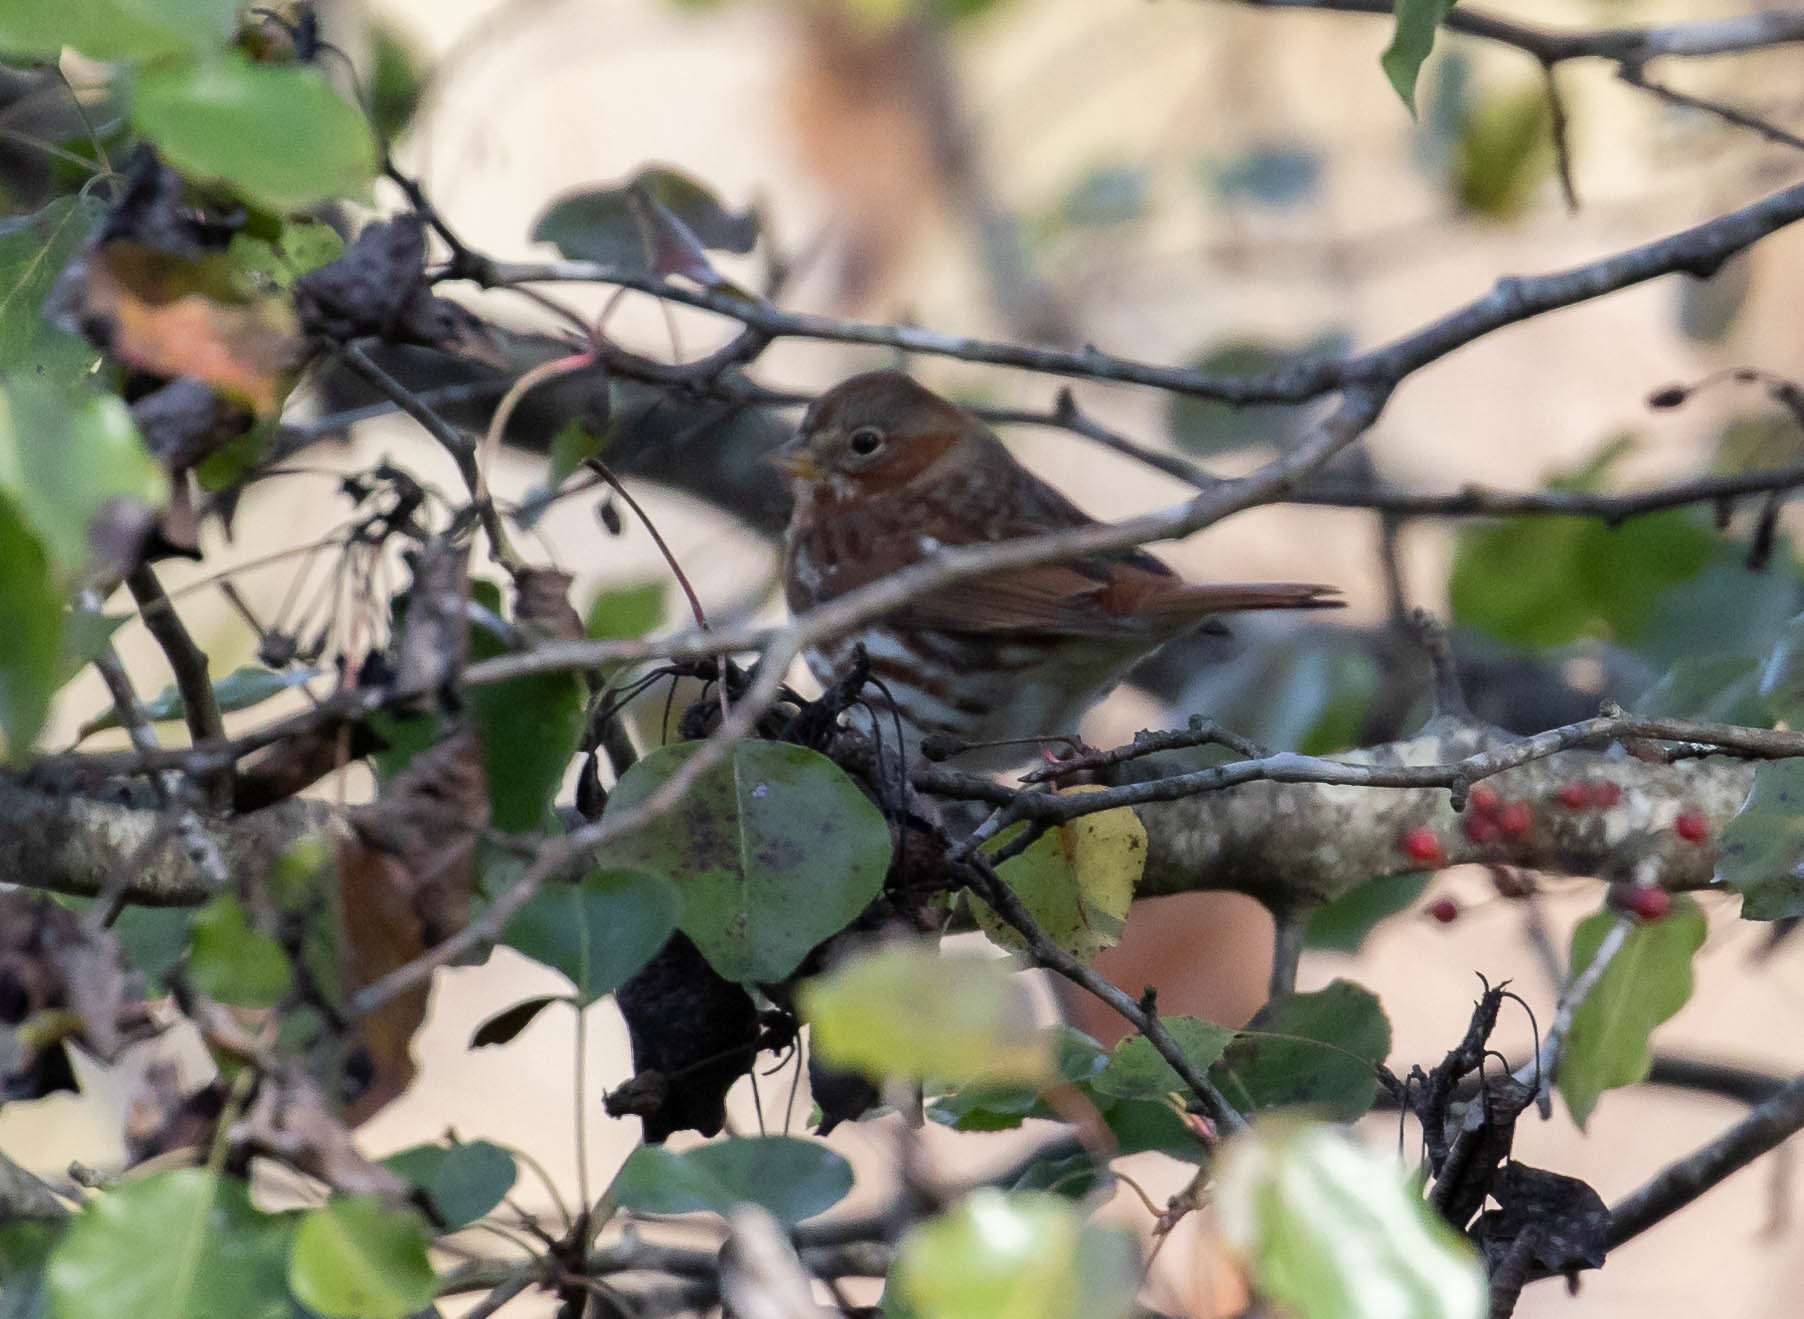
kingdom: Animalia
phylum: Chordata
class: Aves
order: Passeriformes
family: Passerellidae
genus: Passerella
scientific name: Passerella iliaca
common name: Fox sparrow
